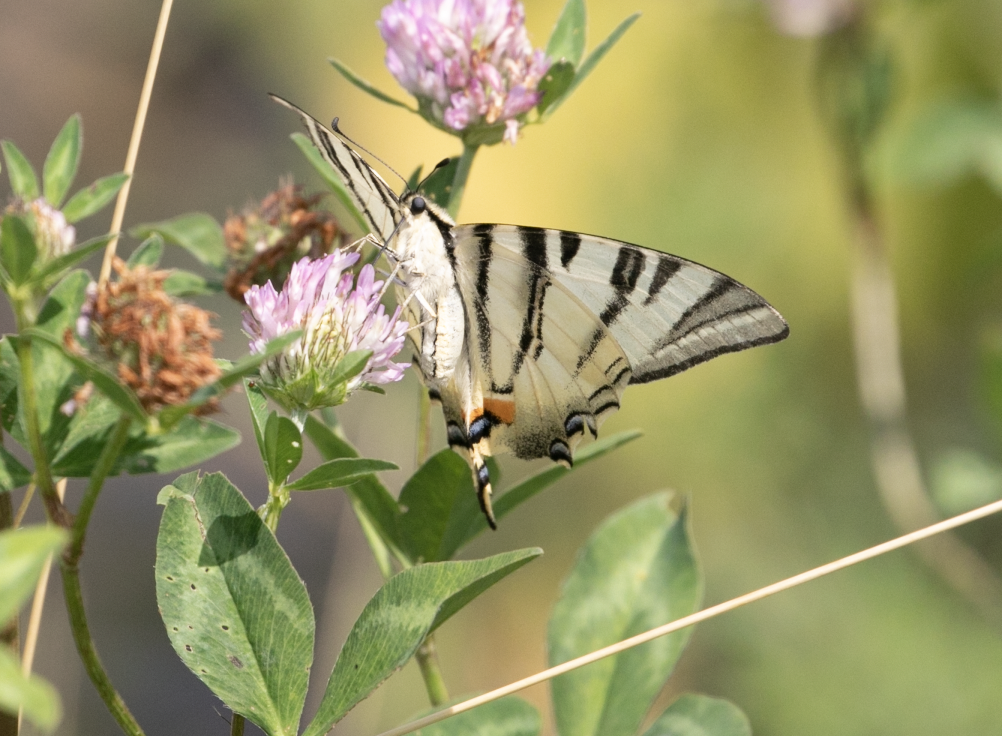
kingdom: Animalia
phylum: Arthropoda
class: Insecta
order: Lepidoptera
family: Papilionidae
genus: Iphiclides
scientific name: Iphiclides podalirius
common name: Scarce swallowtail
